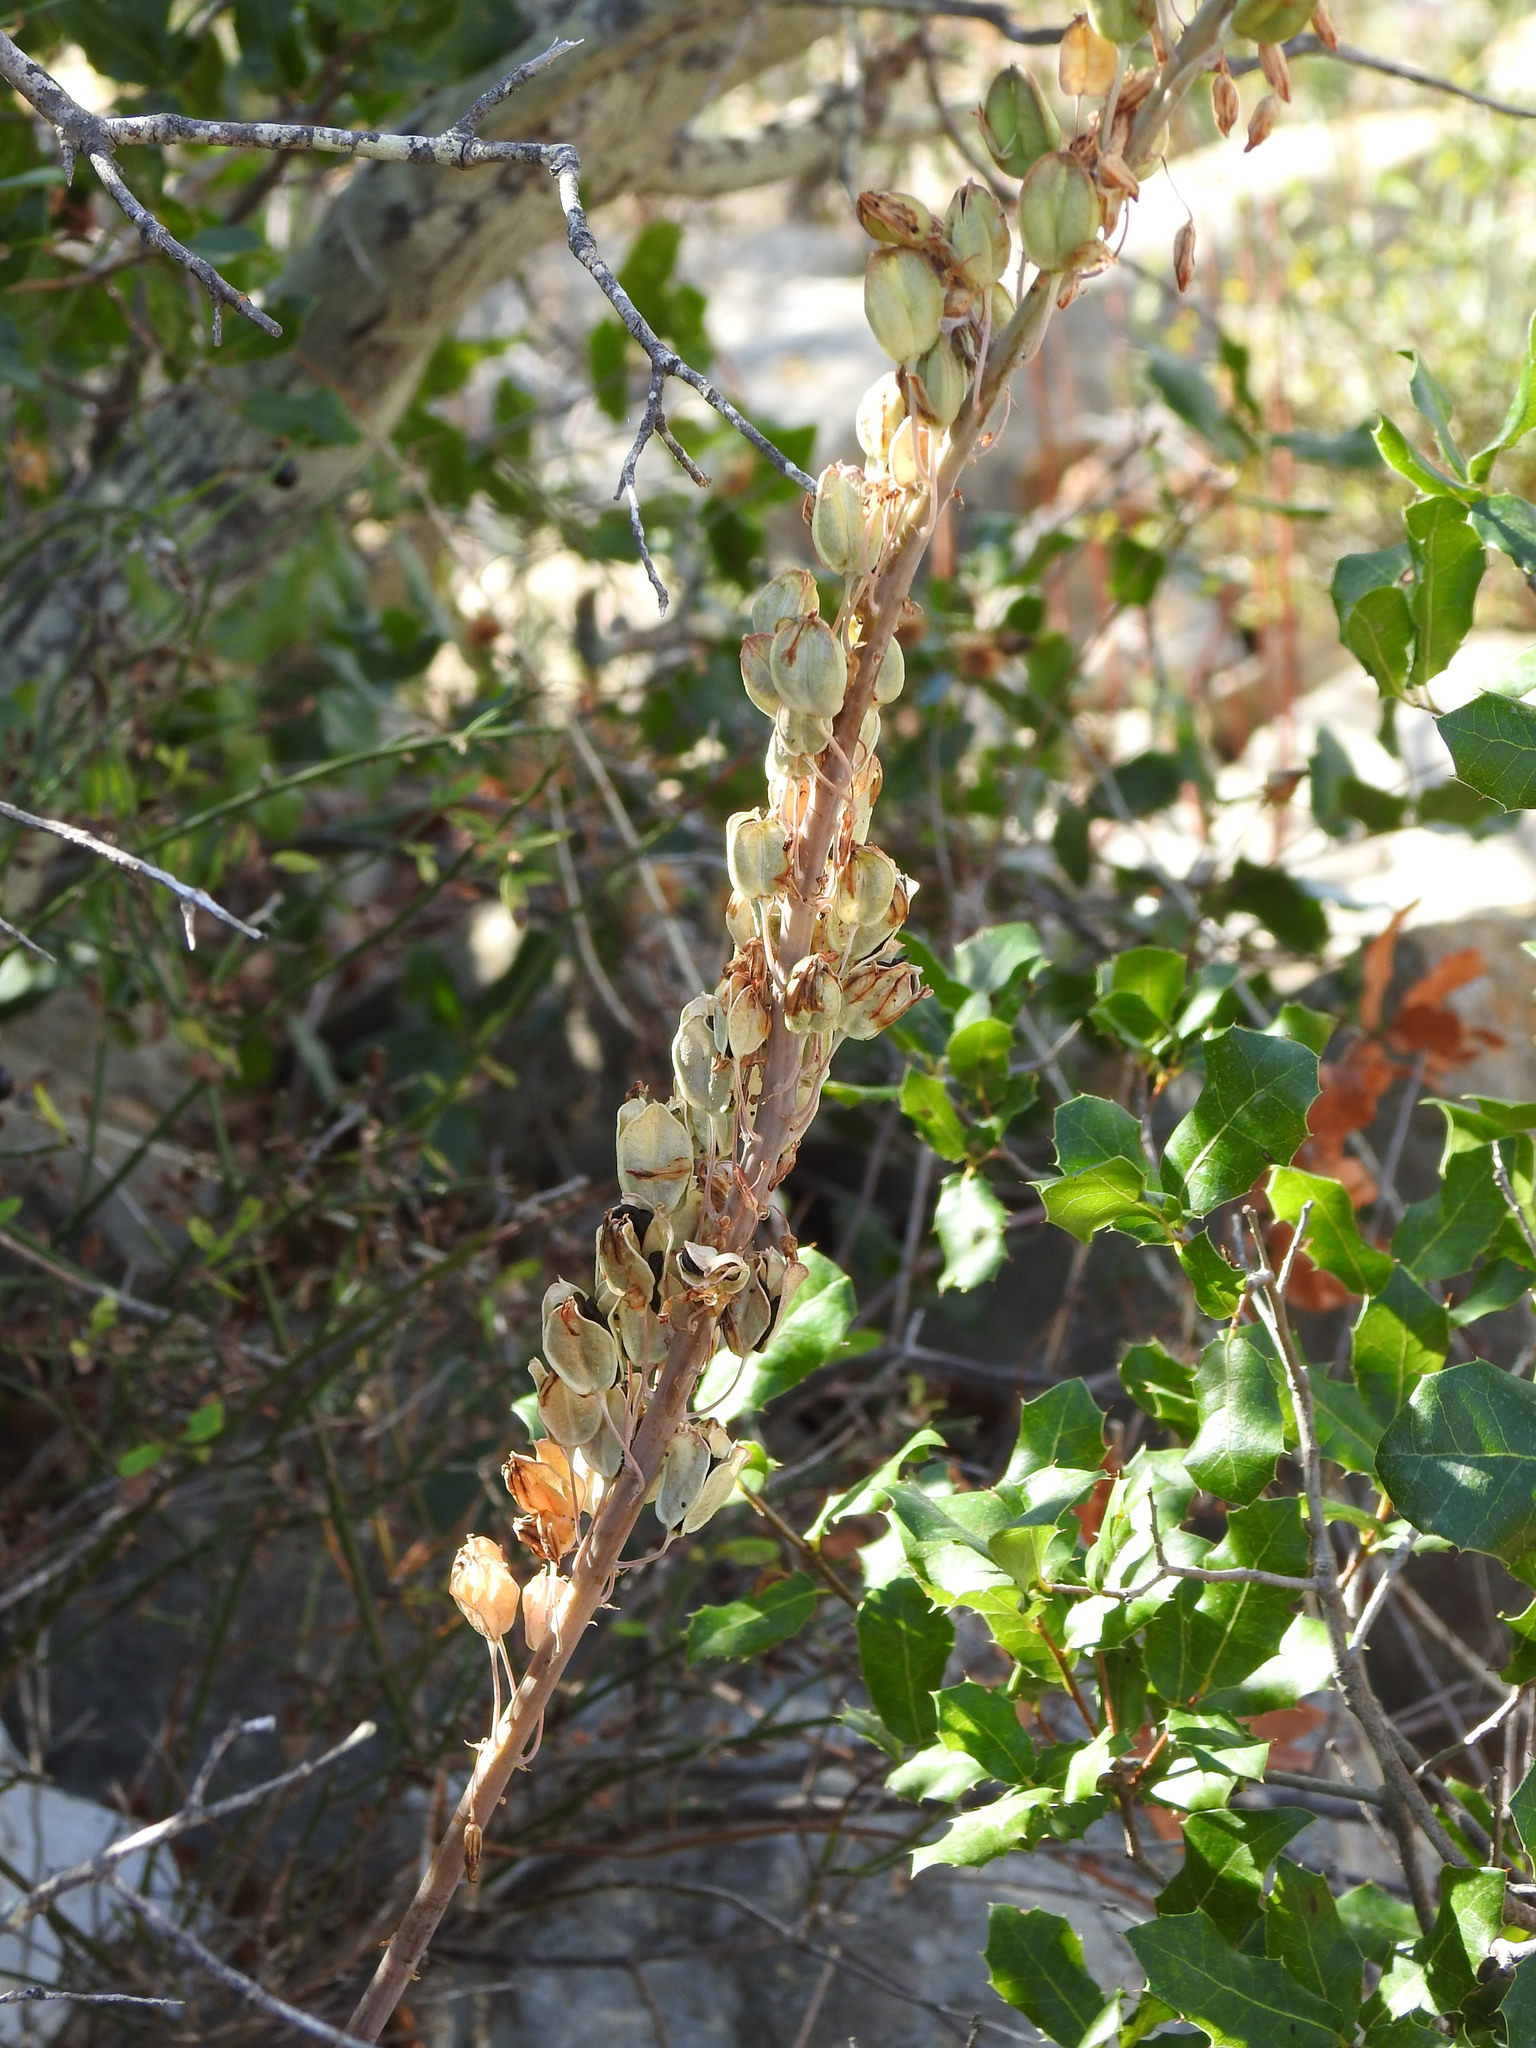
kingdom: Plantae
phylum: Tracheophyta
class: Liliopsida
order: Asparagales
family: Asparagaceae
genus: Drimia
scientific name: Drimia maritima
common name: Maritime squill
